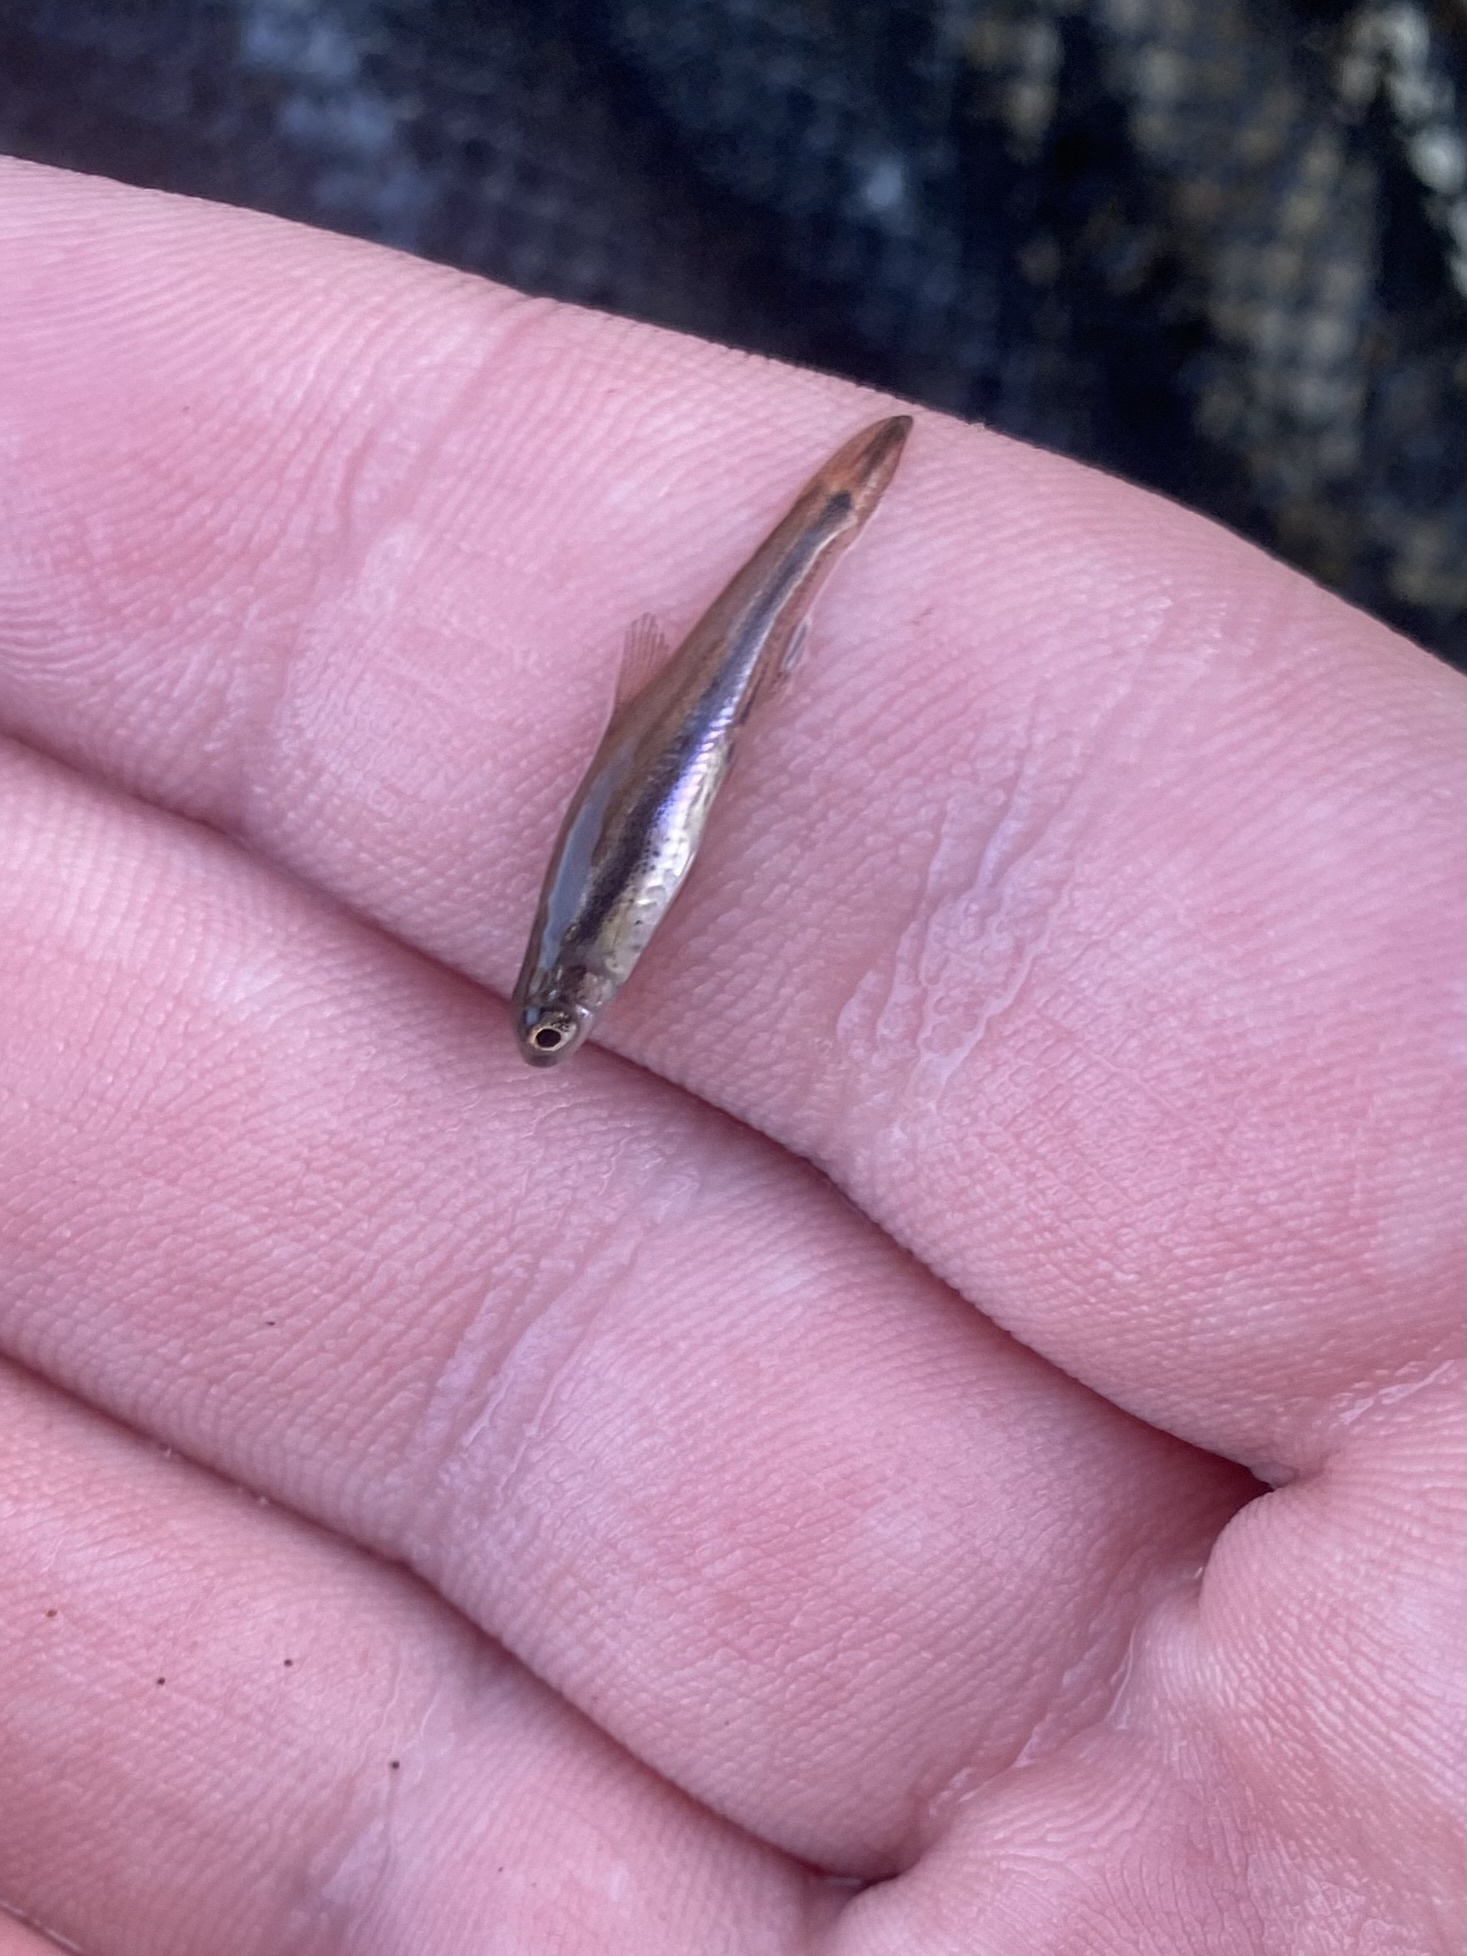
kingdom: Animalia
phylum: Chordata
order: Cypriniformes
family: Cyprinidae
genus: Chrosomus
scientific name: Chrosomus erythrogaster
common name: Southern redbelly dace
